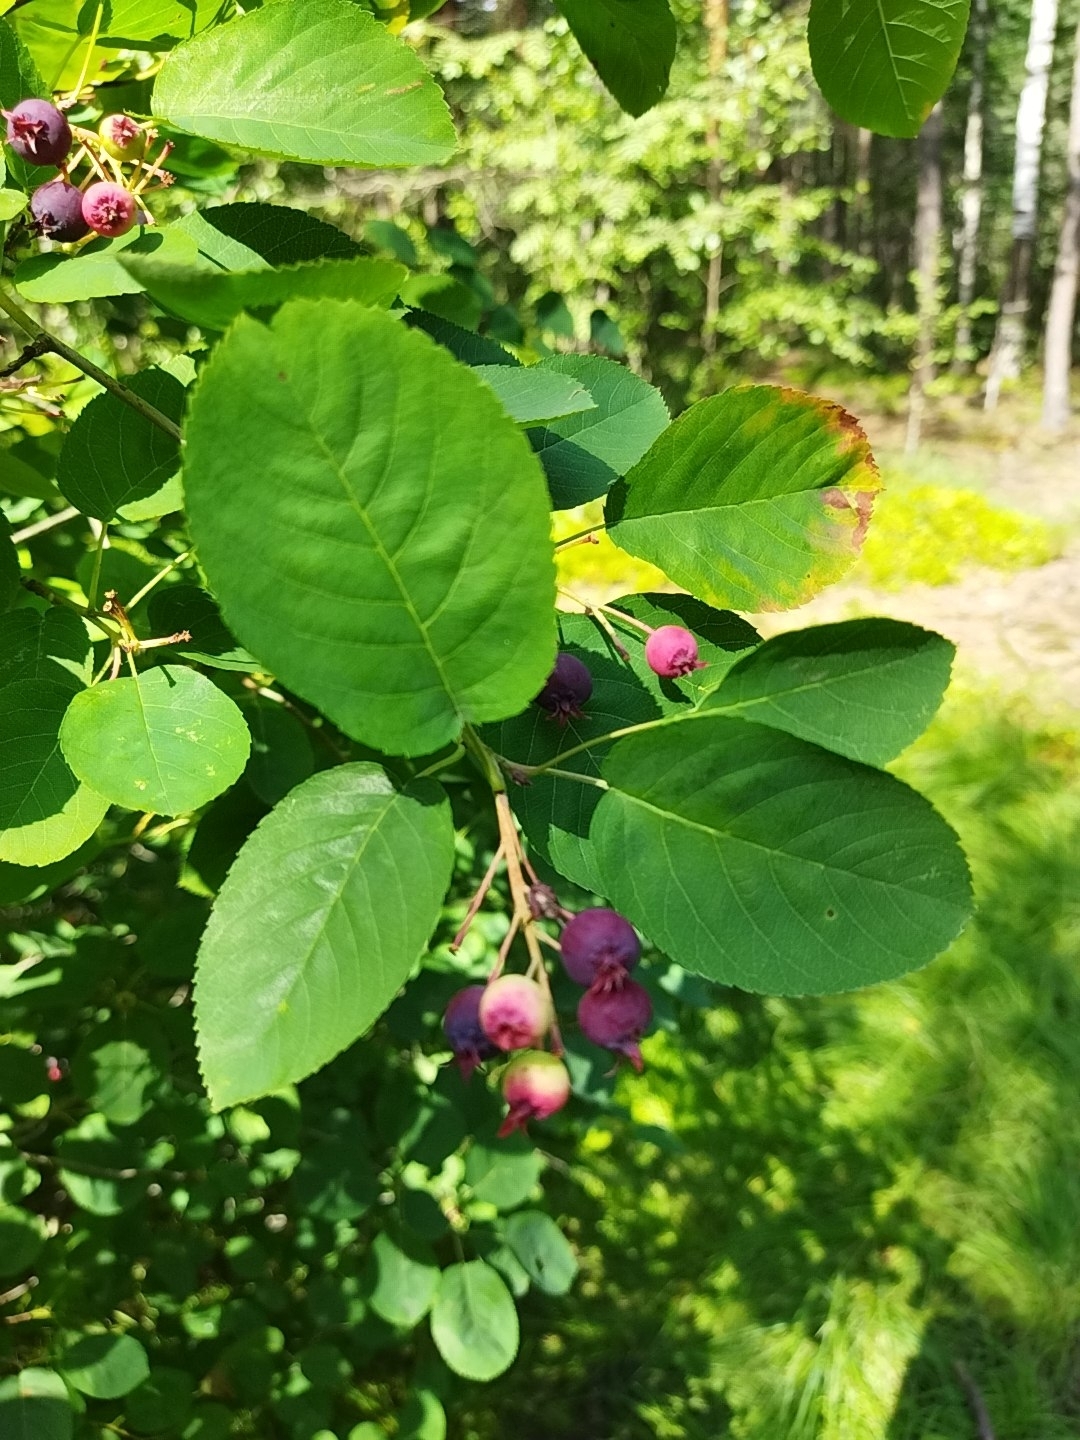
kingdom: Plantae
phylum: Tracheophyta
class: Magnoliopsida
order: Rosales
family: Rosaceae
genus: Amelanchier
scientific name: Amelanchier
